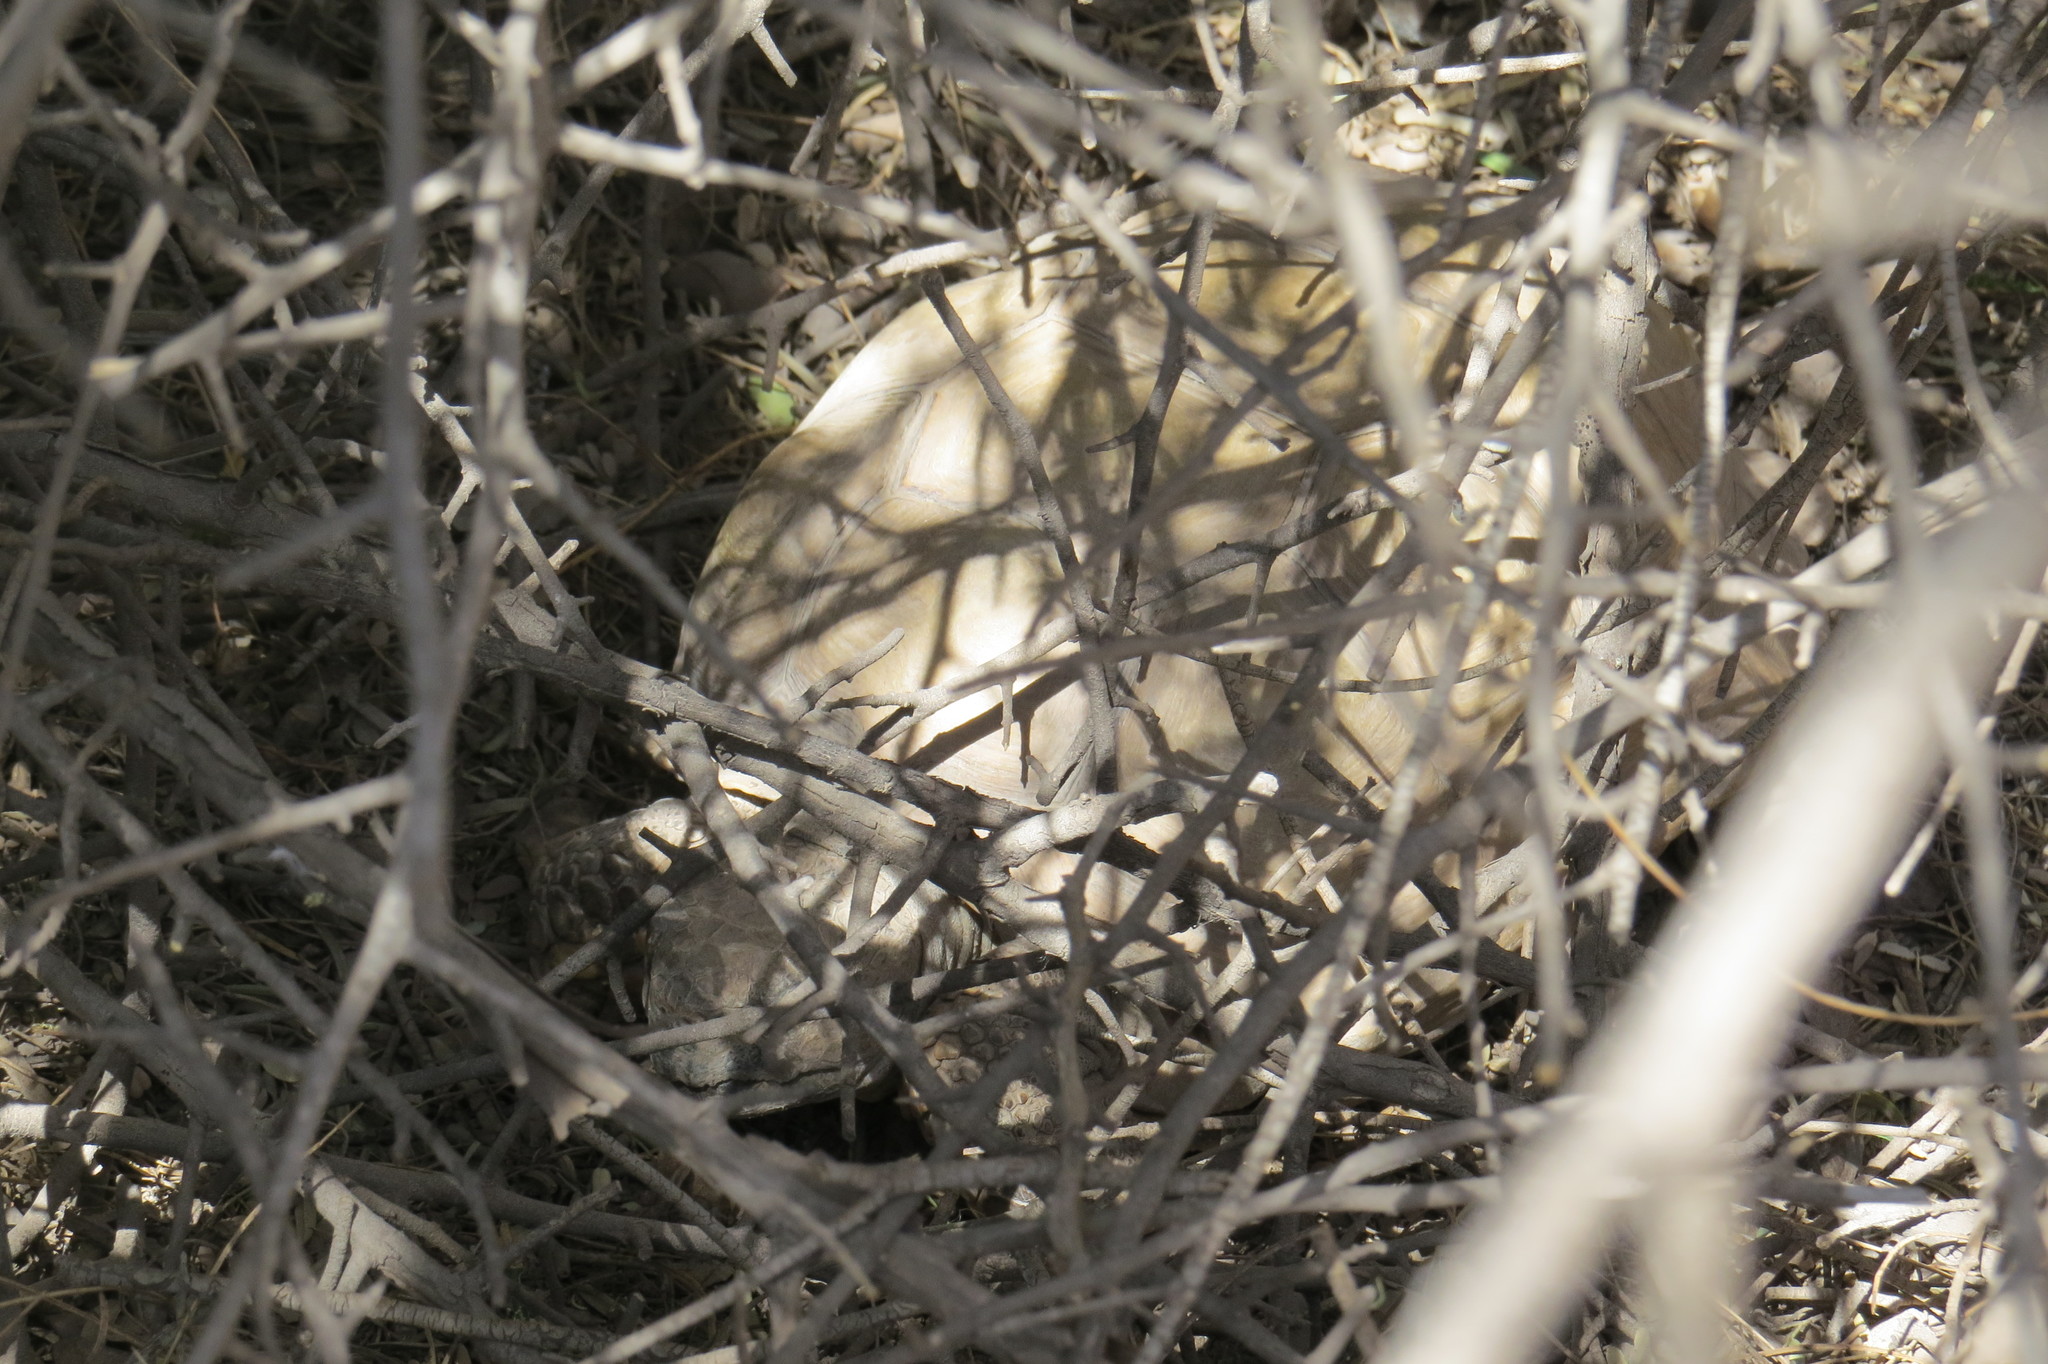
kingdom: Animalia
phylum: Chordata
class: Testudines
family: Testudinidae
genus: Chelonoidis
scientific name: Chelonoidis chilensis
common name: Chaco tortoise
